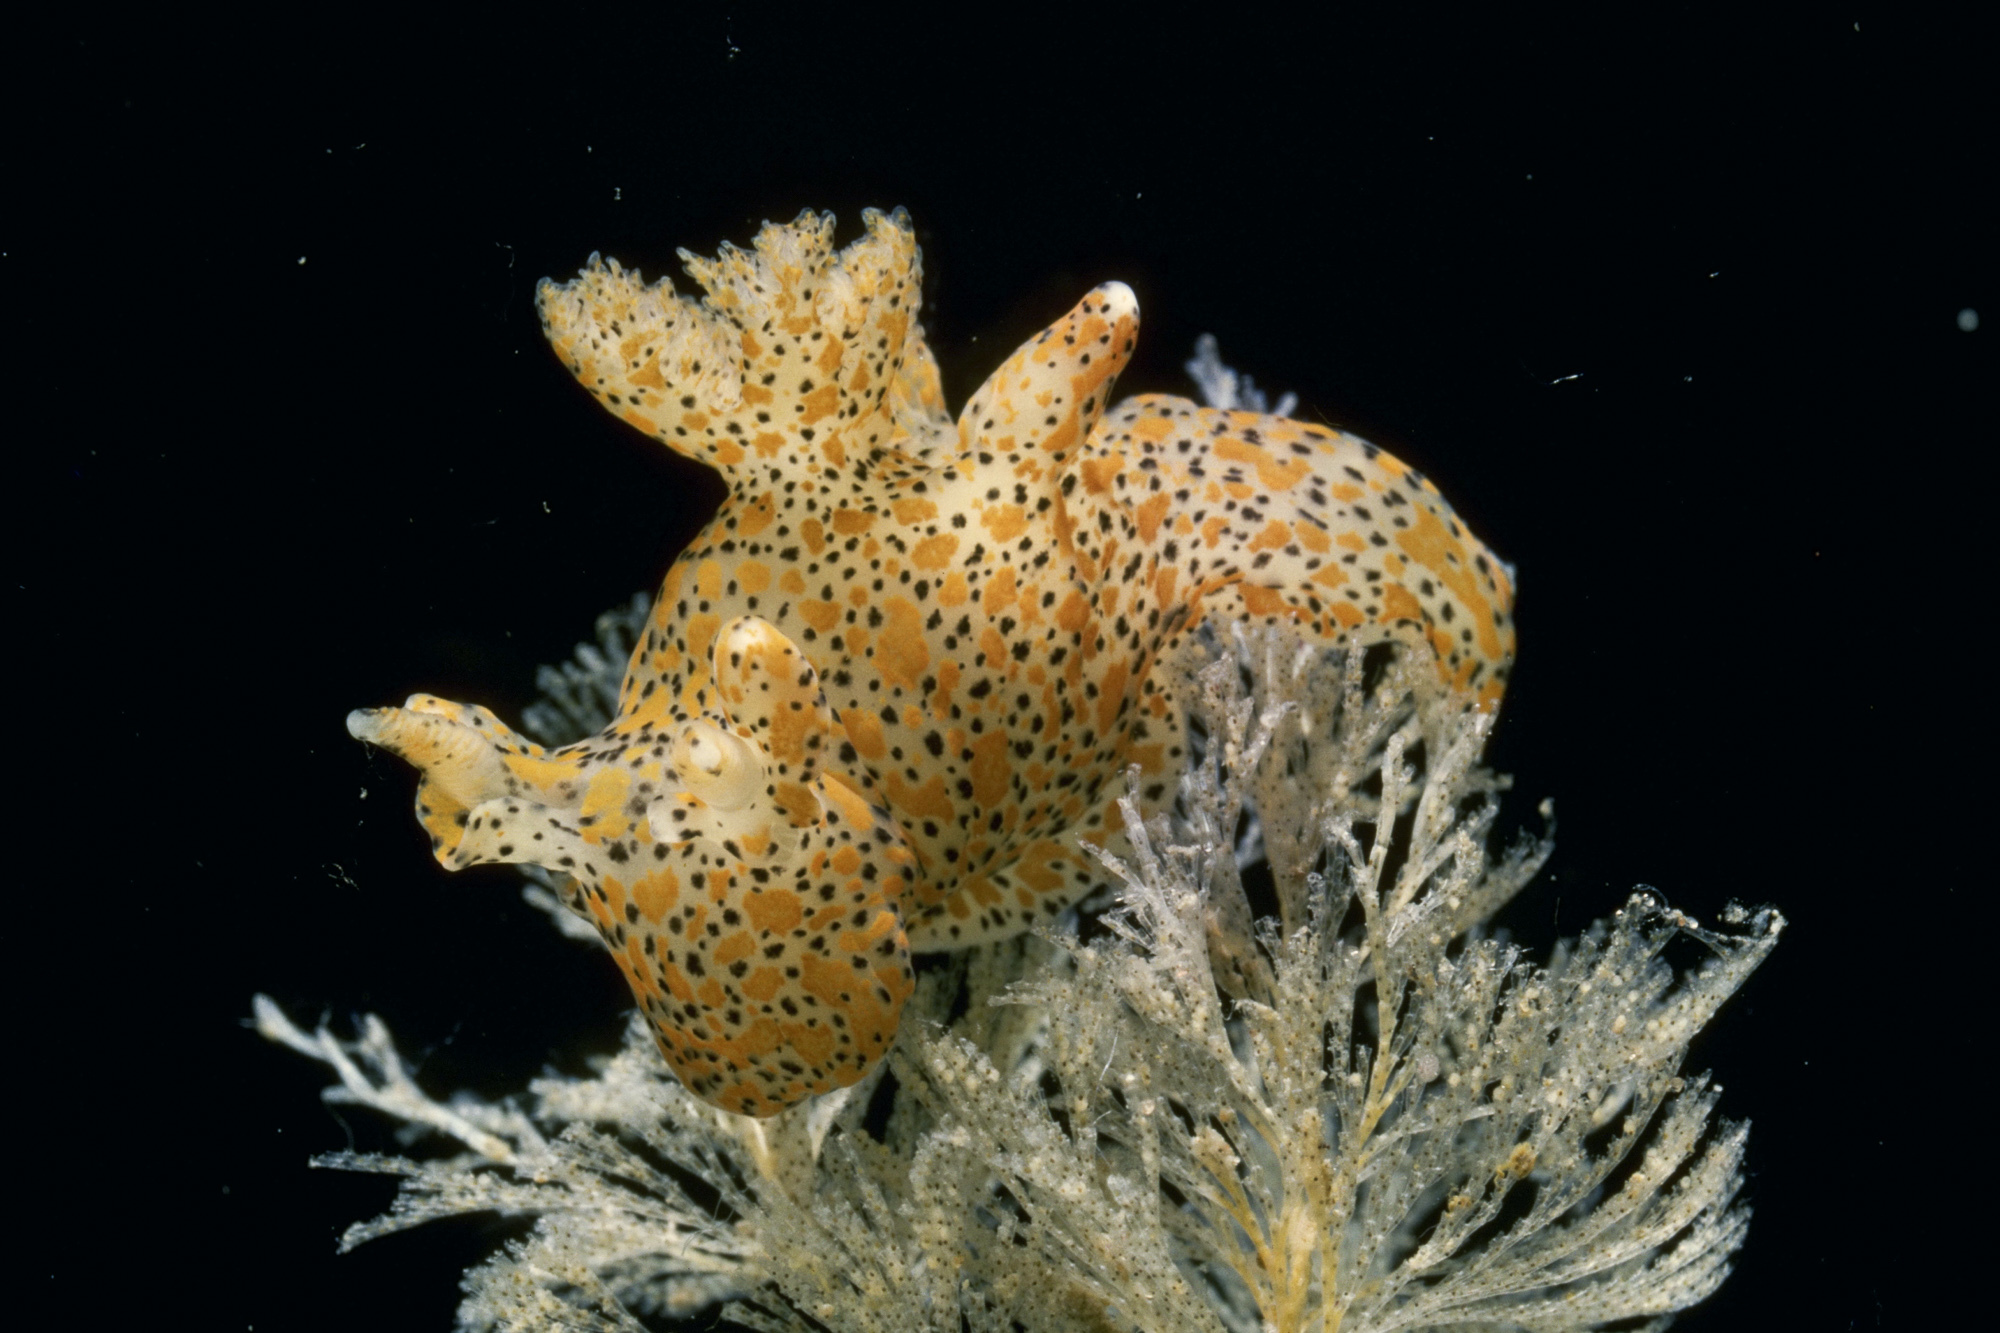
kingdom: Animalia
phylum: Mollusca
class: Gastropoda
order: Nudibranchia
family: Polyceridae
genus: Thecacera
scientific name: Thecacera pennigera
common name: Thecacera
